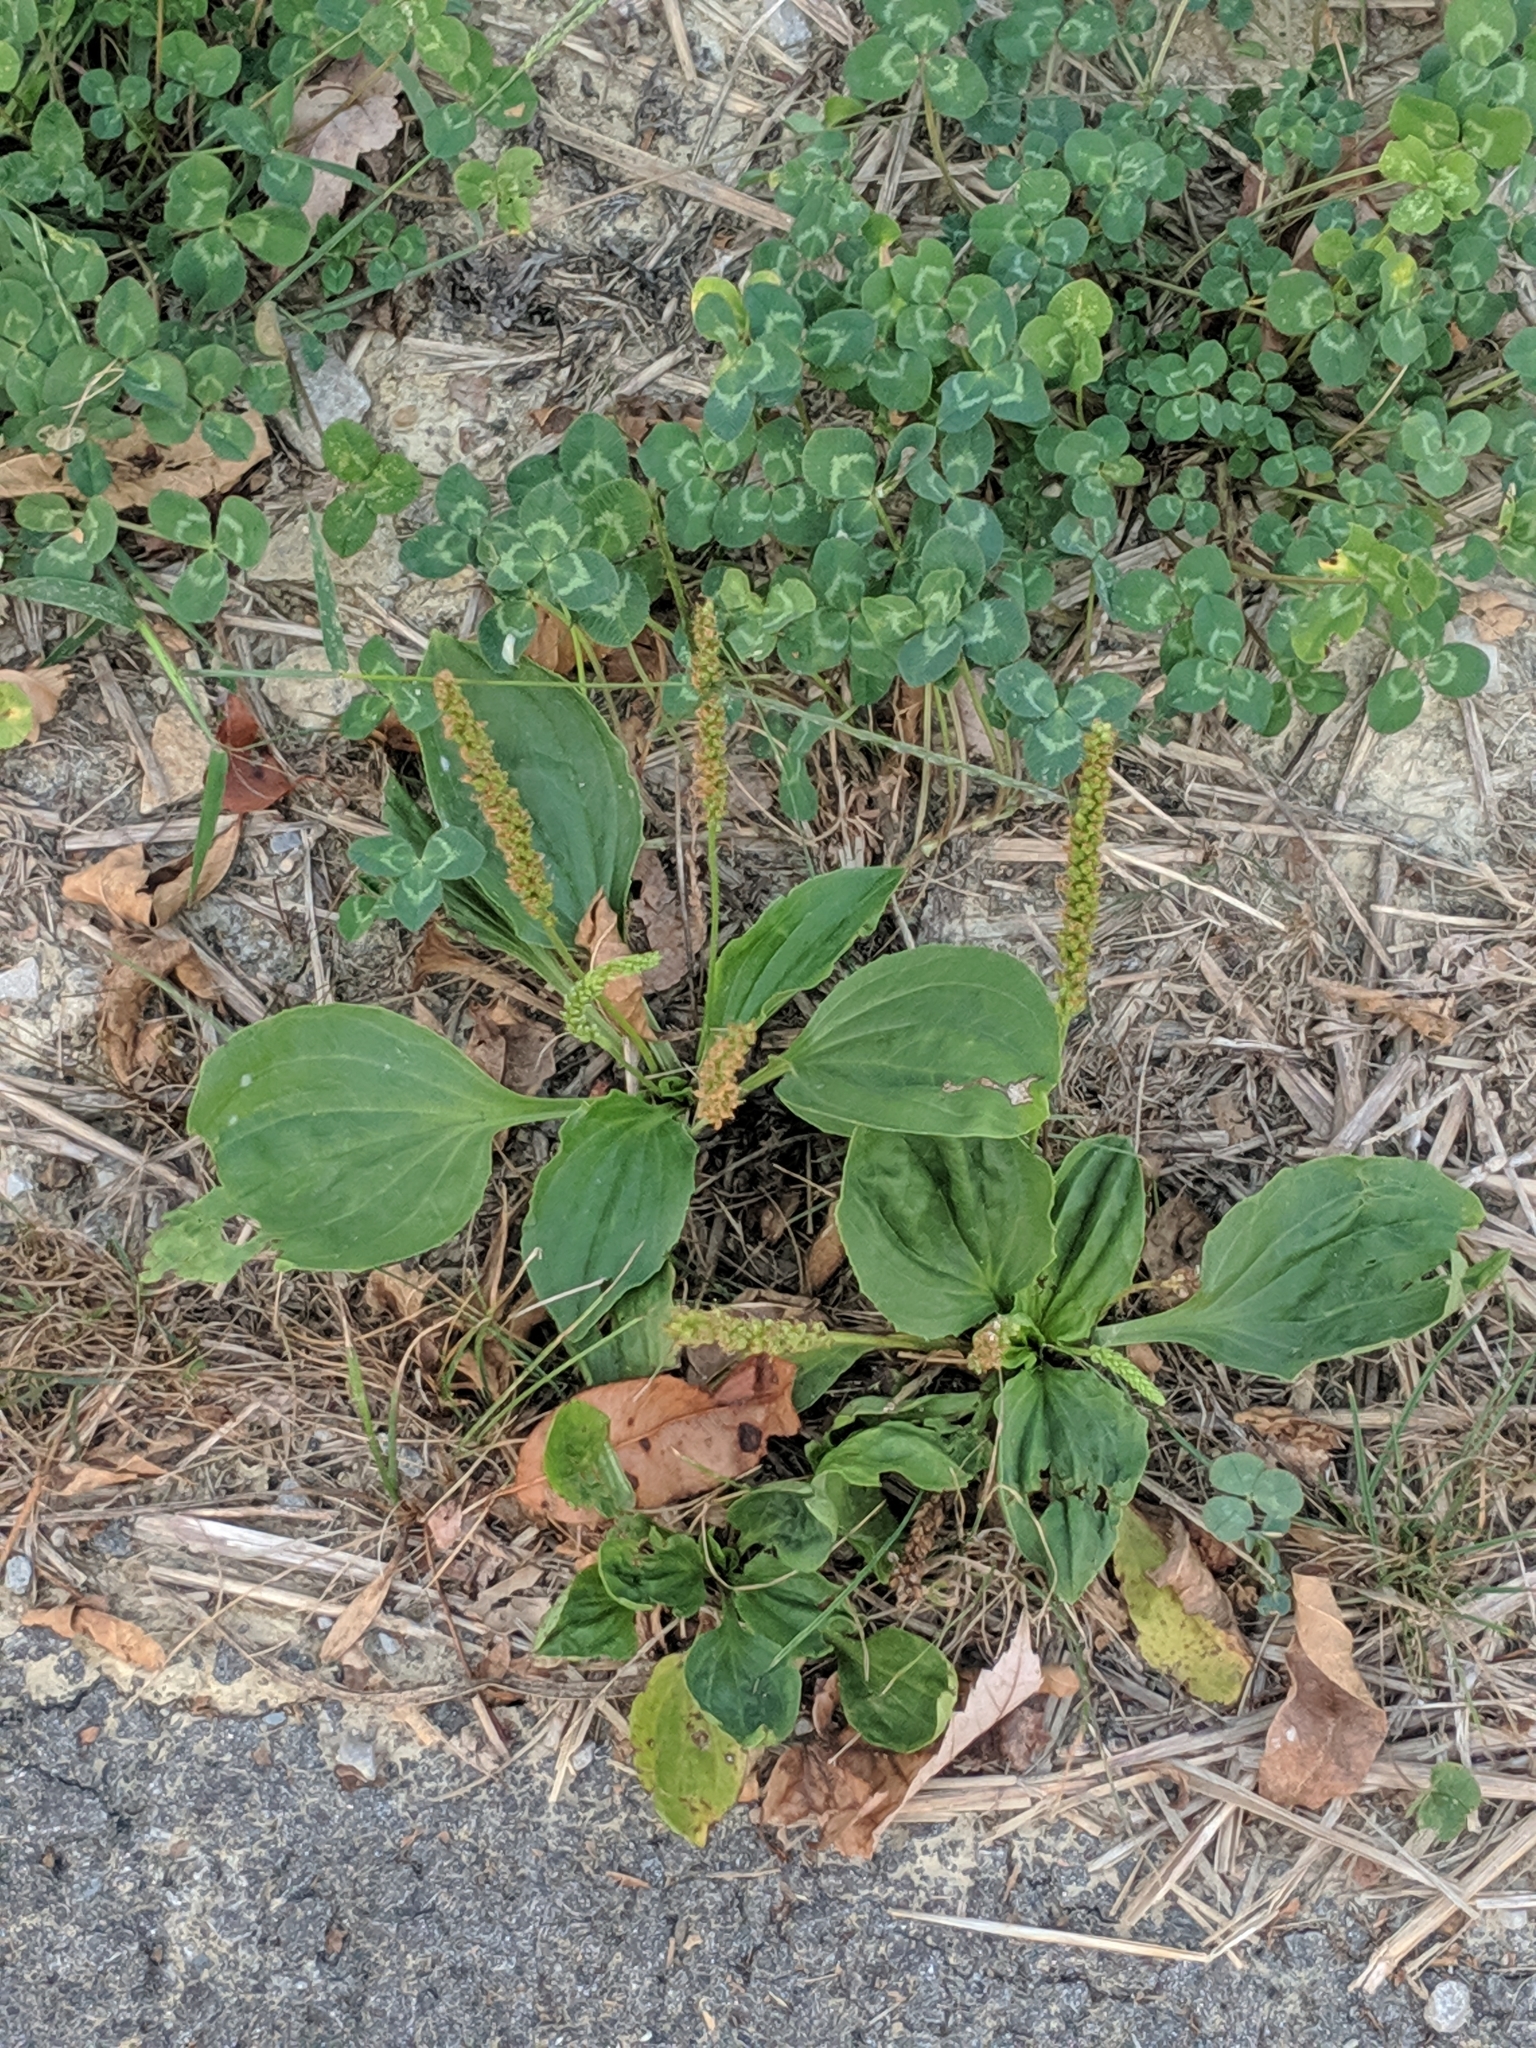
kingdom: Plantae
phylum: Tracheophyta
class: Magnoliopsida
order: Lamiales
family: Plantaginaceae
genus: Plantago
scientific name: Plantago major
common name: Common plantain
